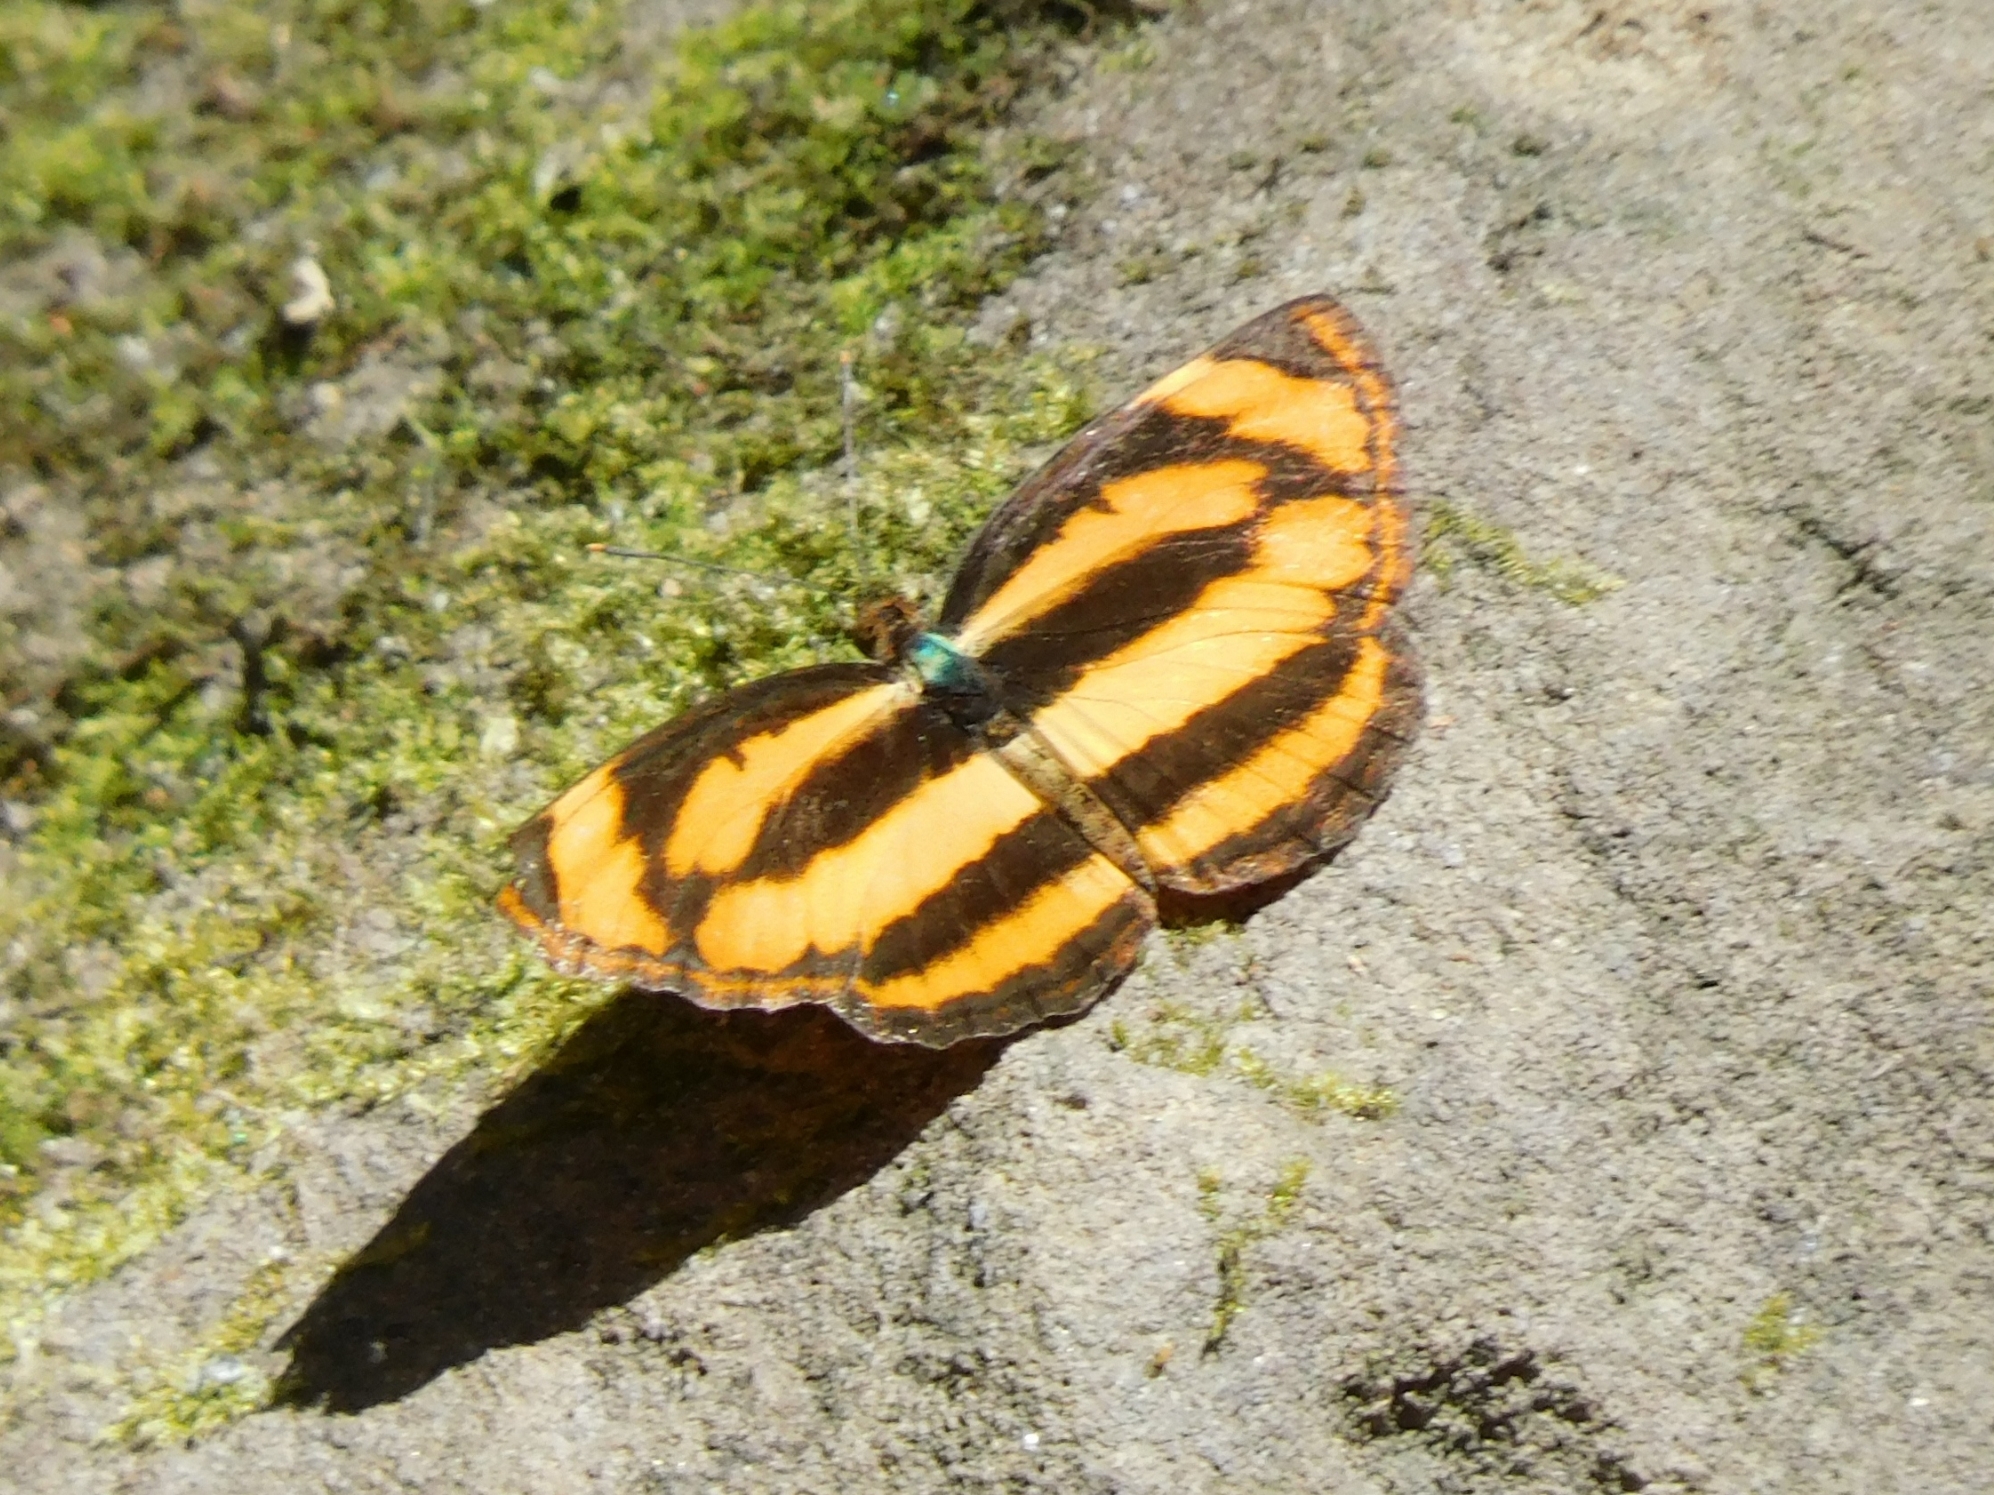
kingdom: Animalia
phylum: Arthropoda
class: Insecta
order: Lepidoptera
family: Nymphalidae
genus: Pantoporia
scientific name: Pantoporia hordonia
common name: Common lascar
